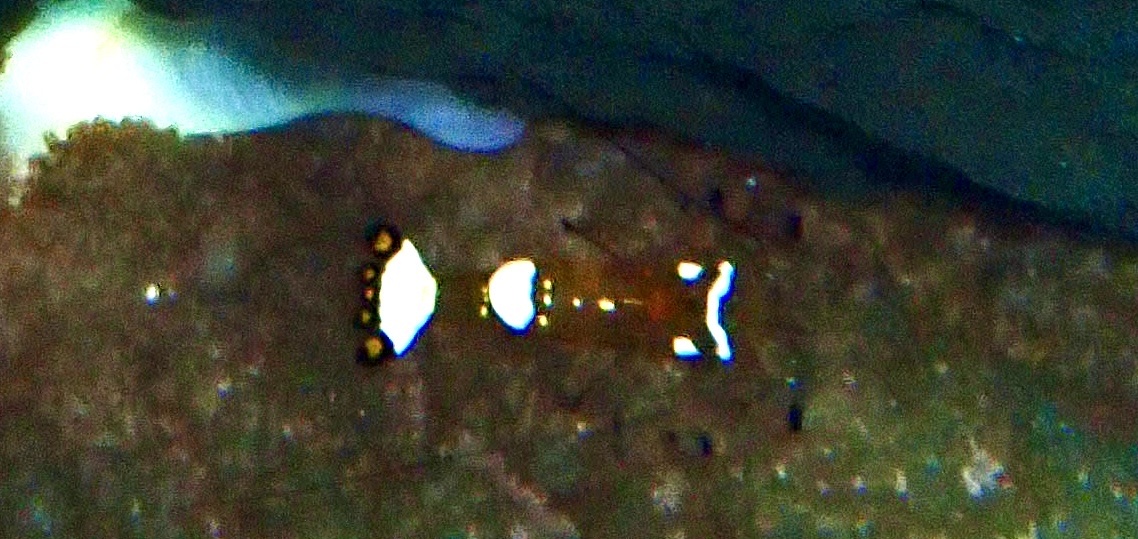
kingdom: Animalia
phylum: Arthropoda
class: Malacostraca
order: Decapoda
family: Palaemonidae
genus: Ancylocaris
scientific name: Ancylocaris brevicarpalis
